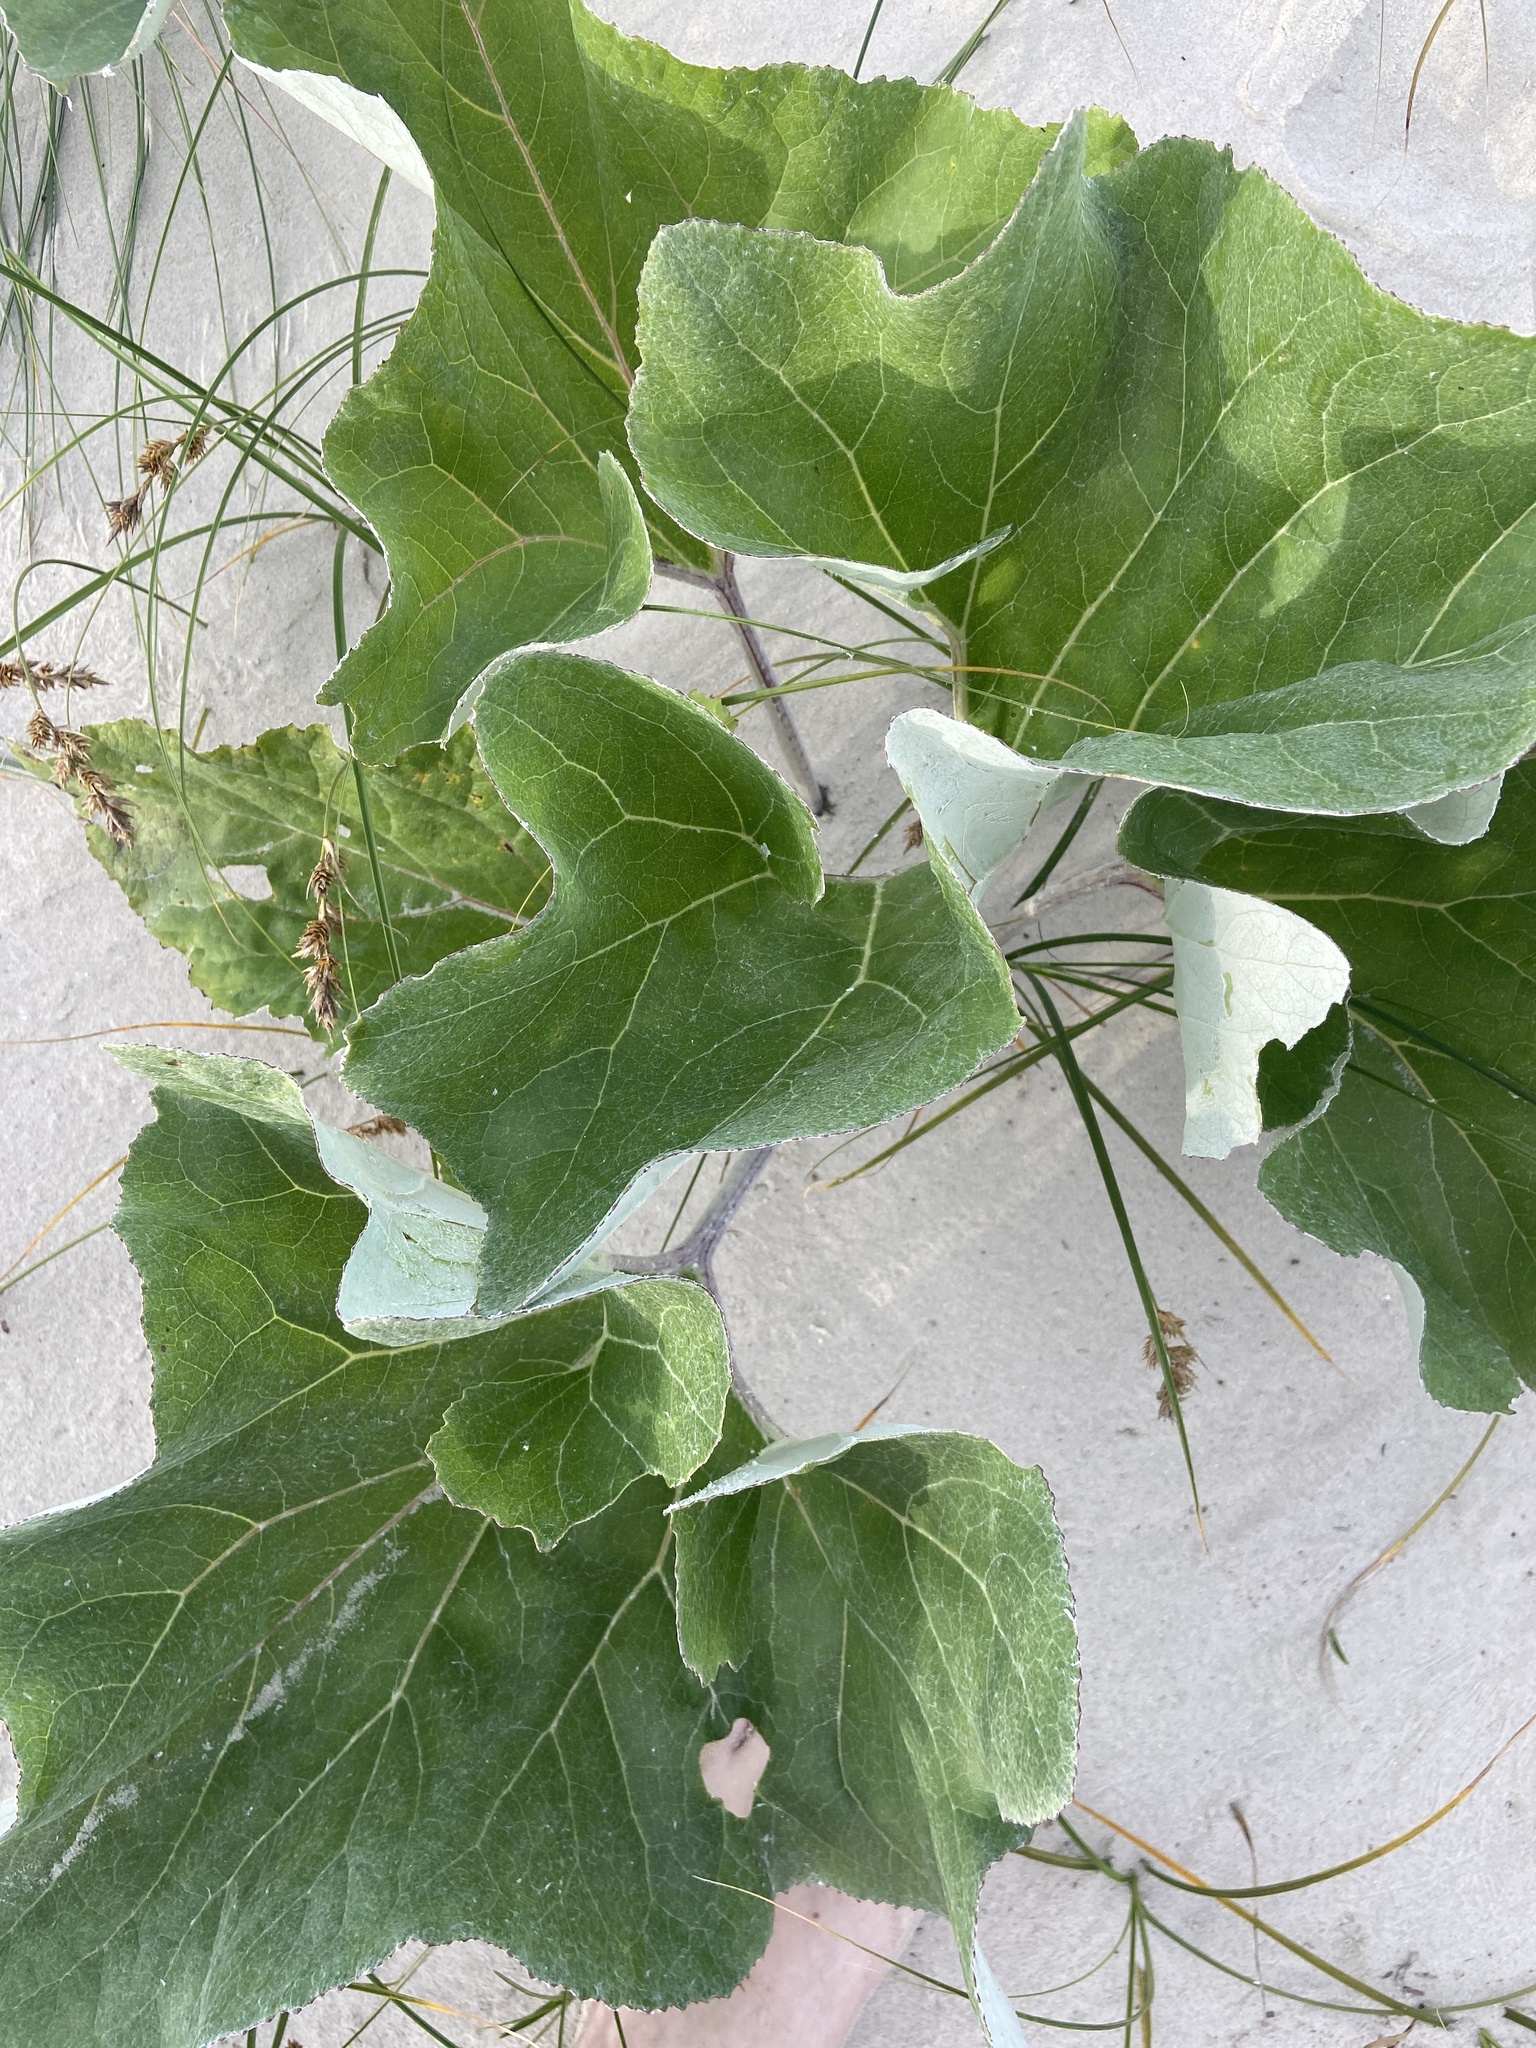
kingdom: Plantae
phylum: Tracheophyta
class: Magnoliopsida
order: Asterales
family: Asteraceae
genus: Petasites
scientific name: Petasites spurius
